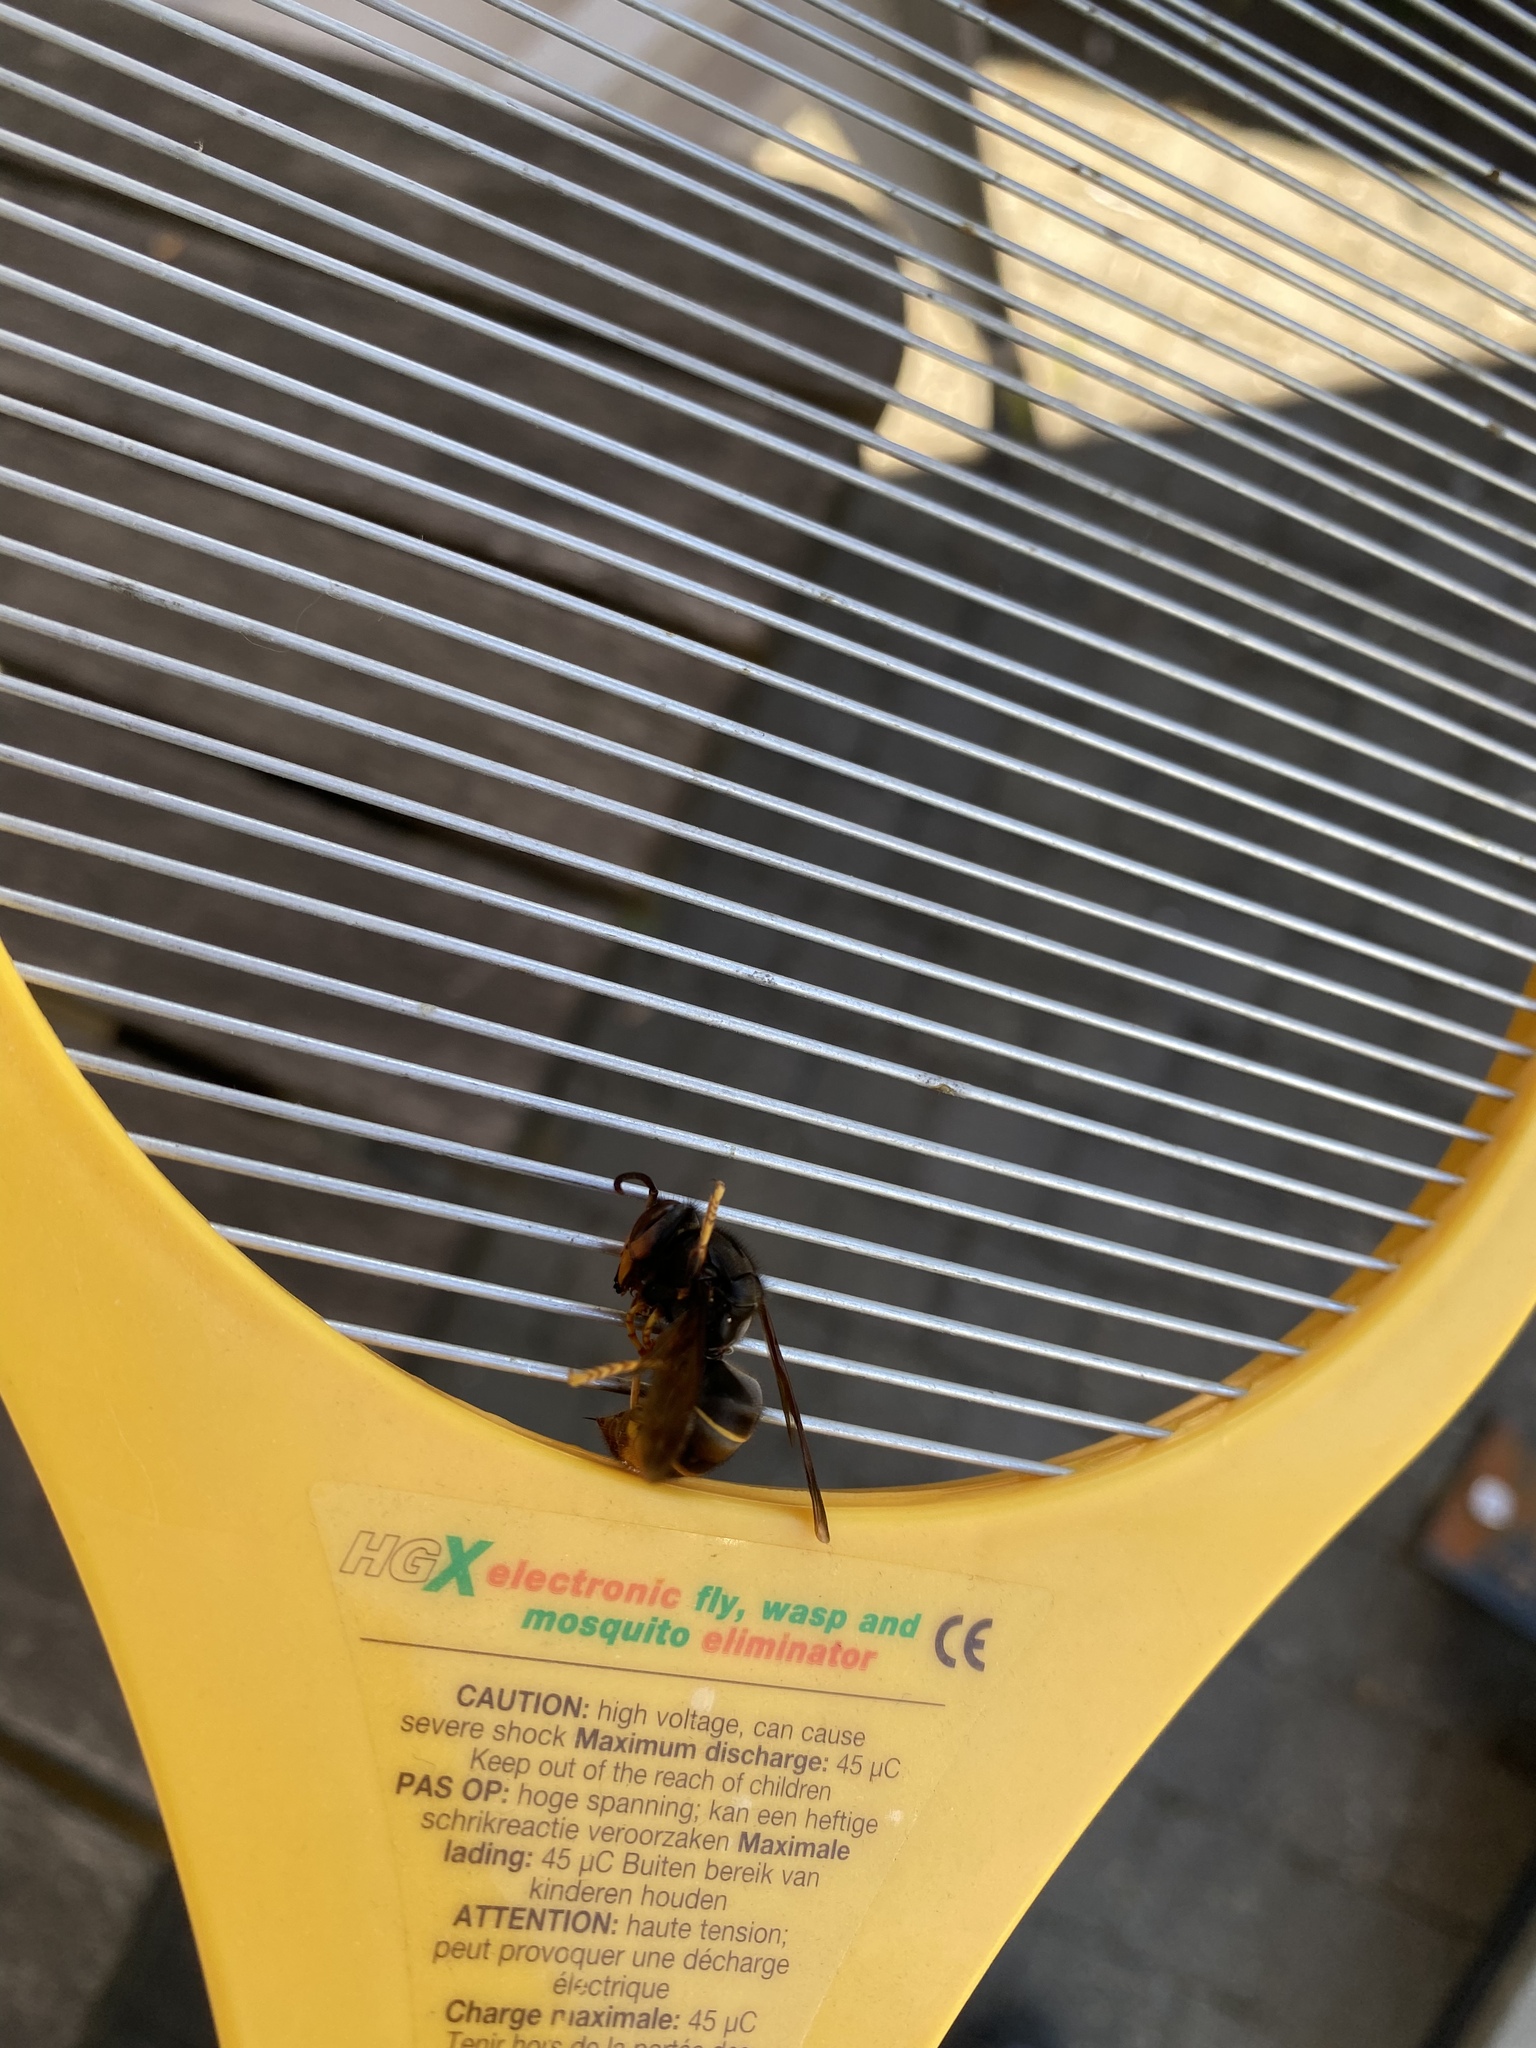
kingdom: Animalia
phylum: Arthropoda
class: Insecta
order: Hymenoptera
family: Vespidae
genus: Vespa
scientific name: Vespa velutina
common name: Asian hornet
